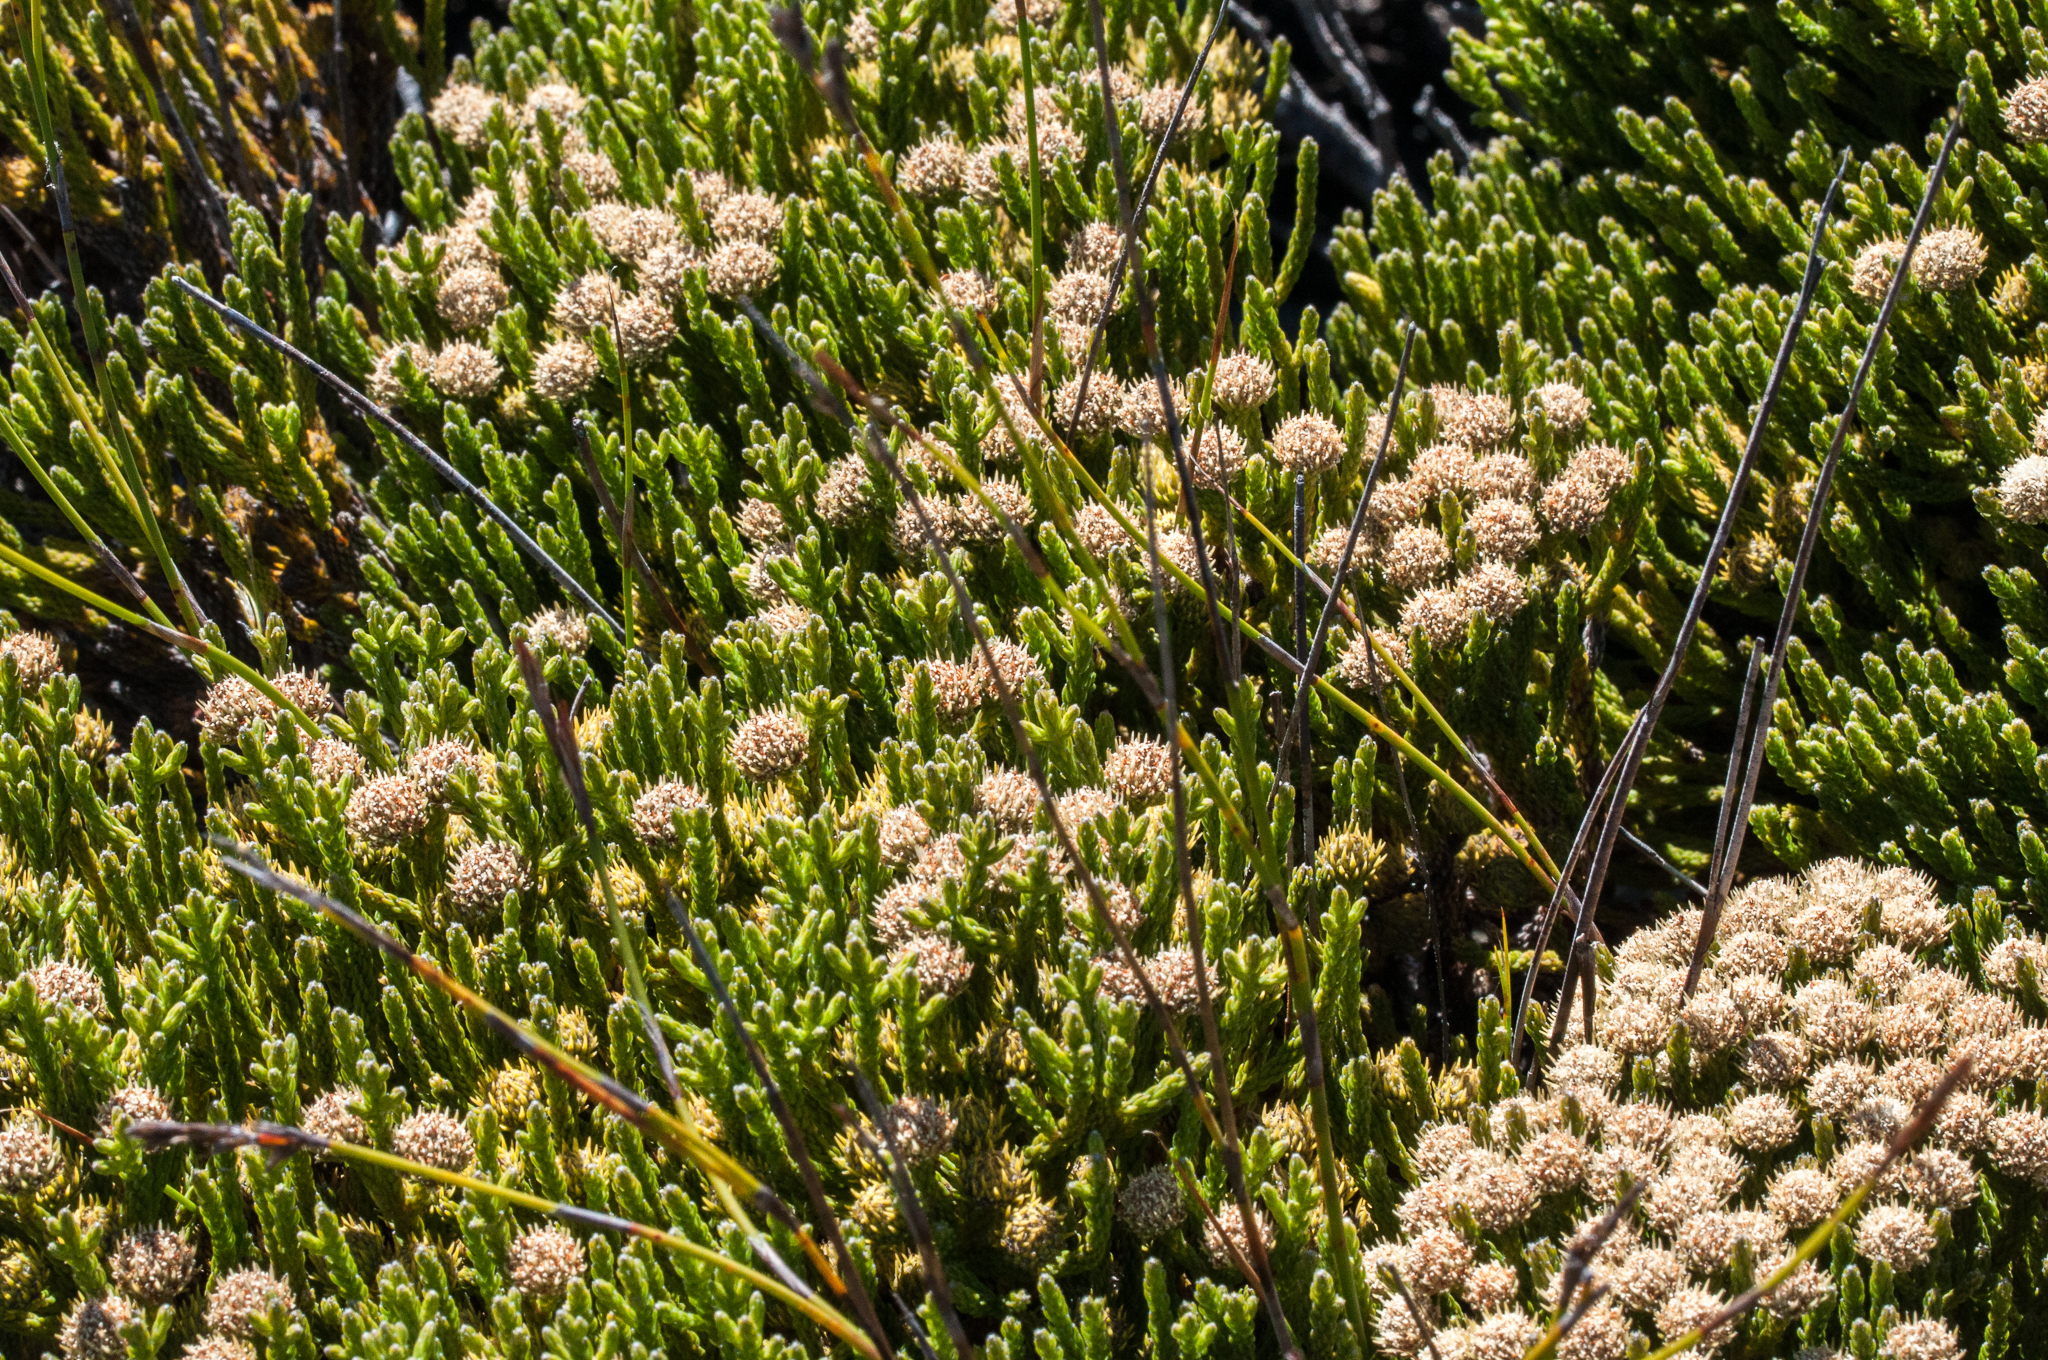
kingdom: Plantae
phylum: Tracheophyta
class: Magnoliopsida
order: Bruniales
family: Bruniaceae
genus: Brunia
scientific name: Brunia paleacea
